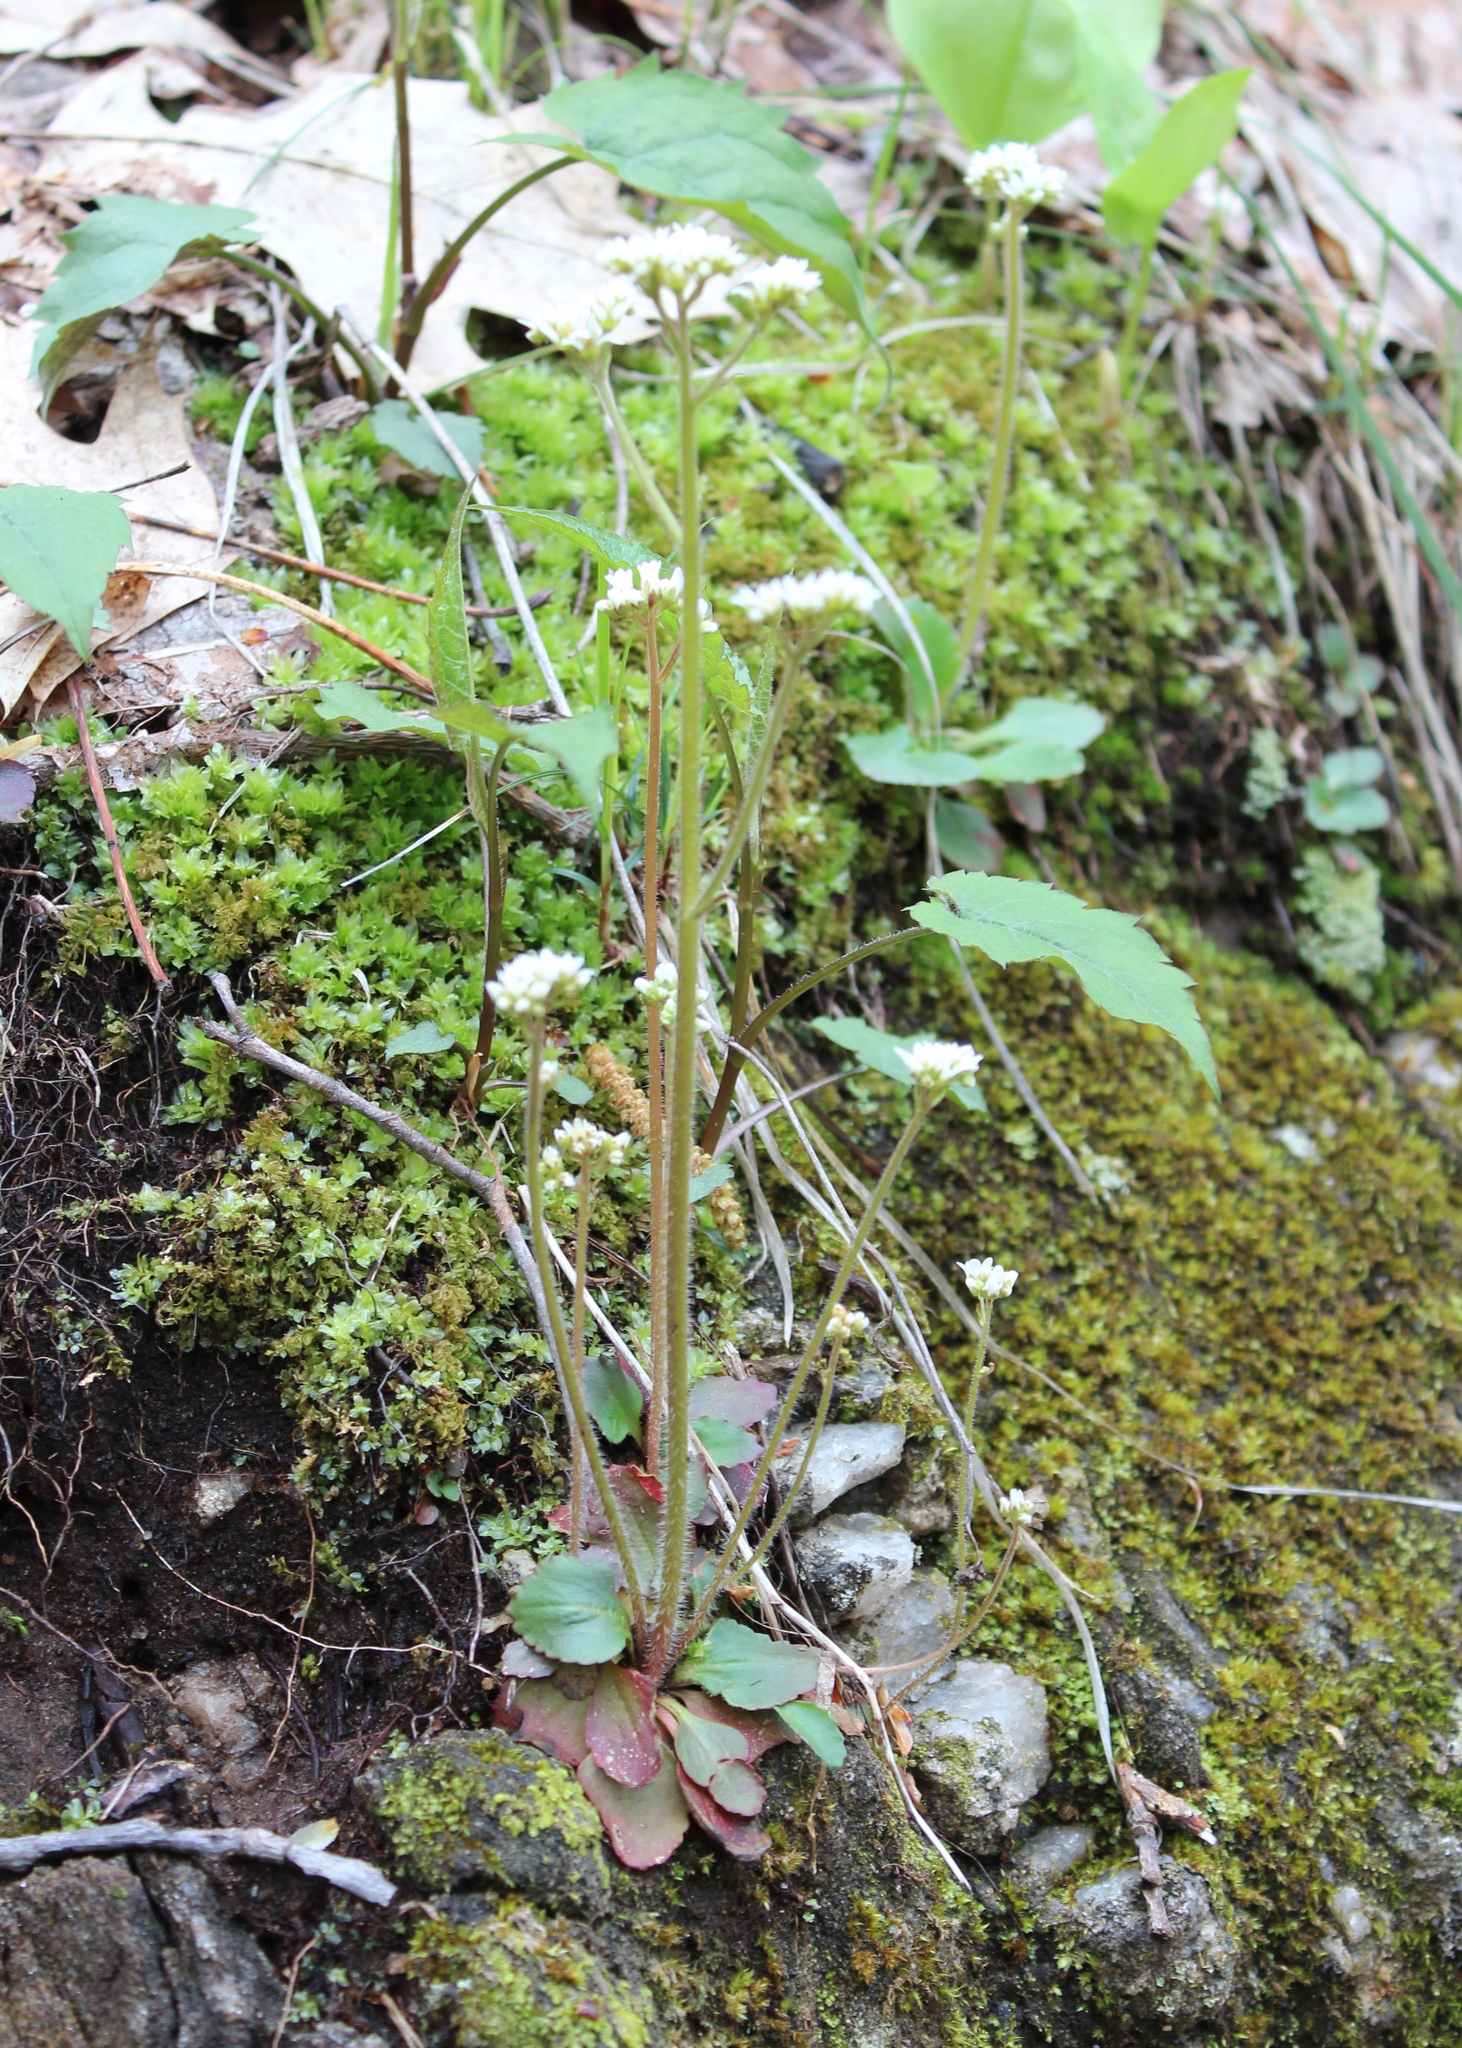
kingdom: Plantae
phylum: Tracheophyta
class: Magnoliopsida
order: Saxifragales
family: Saxifragaceae
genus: Micranthes
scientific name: Micranthes virginiensis
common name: Early saxifrage
